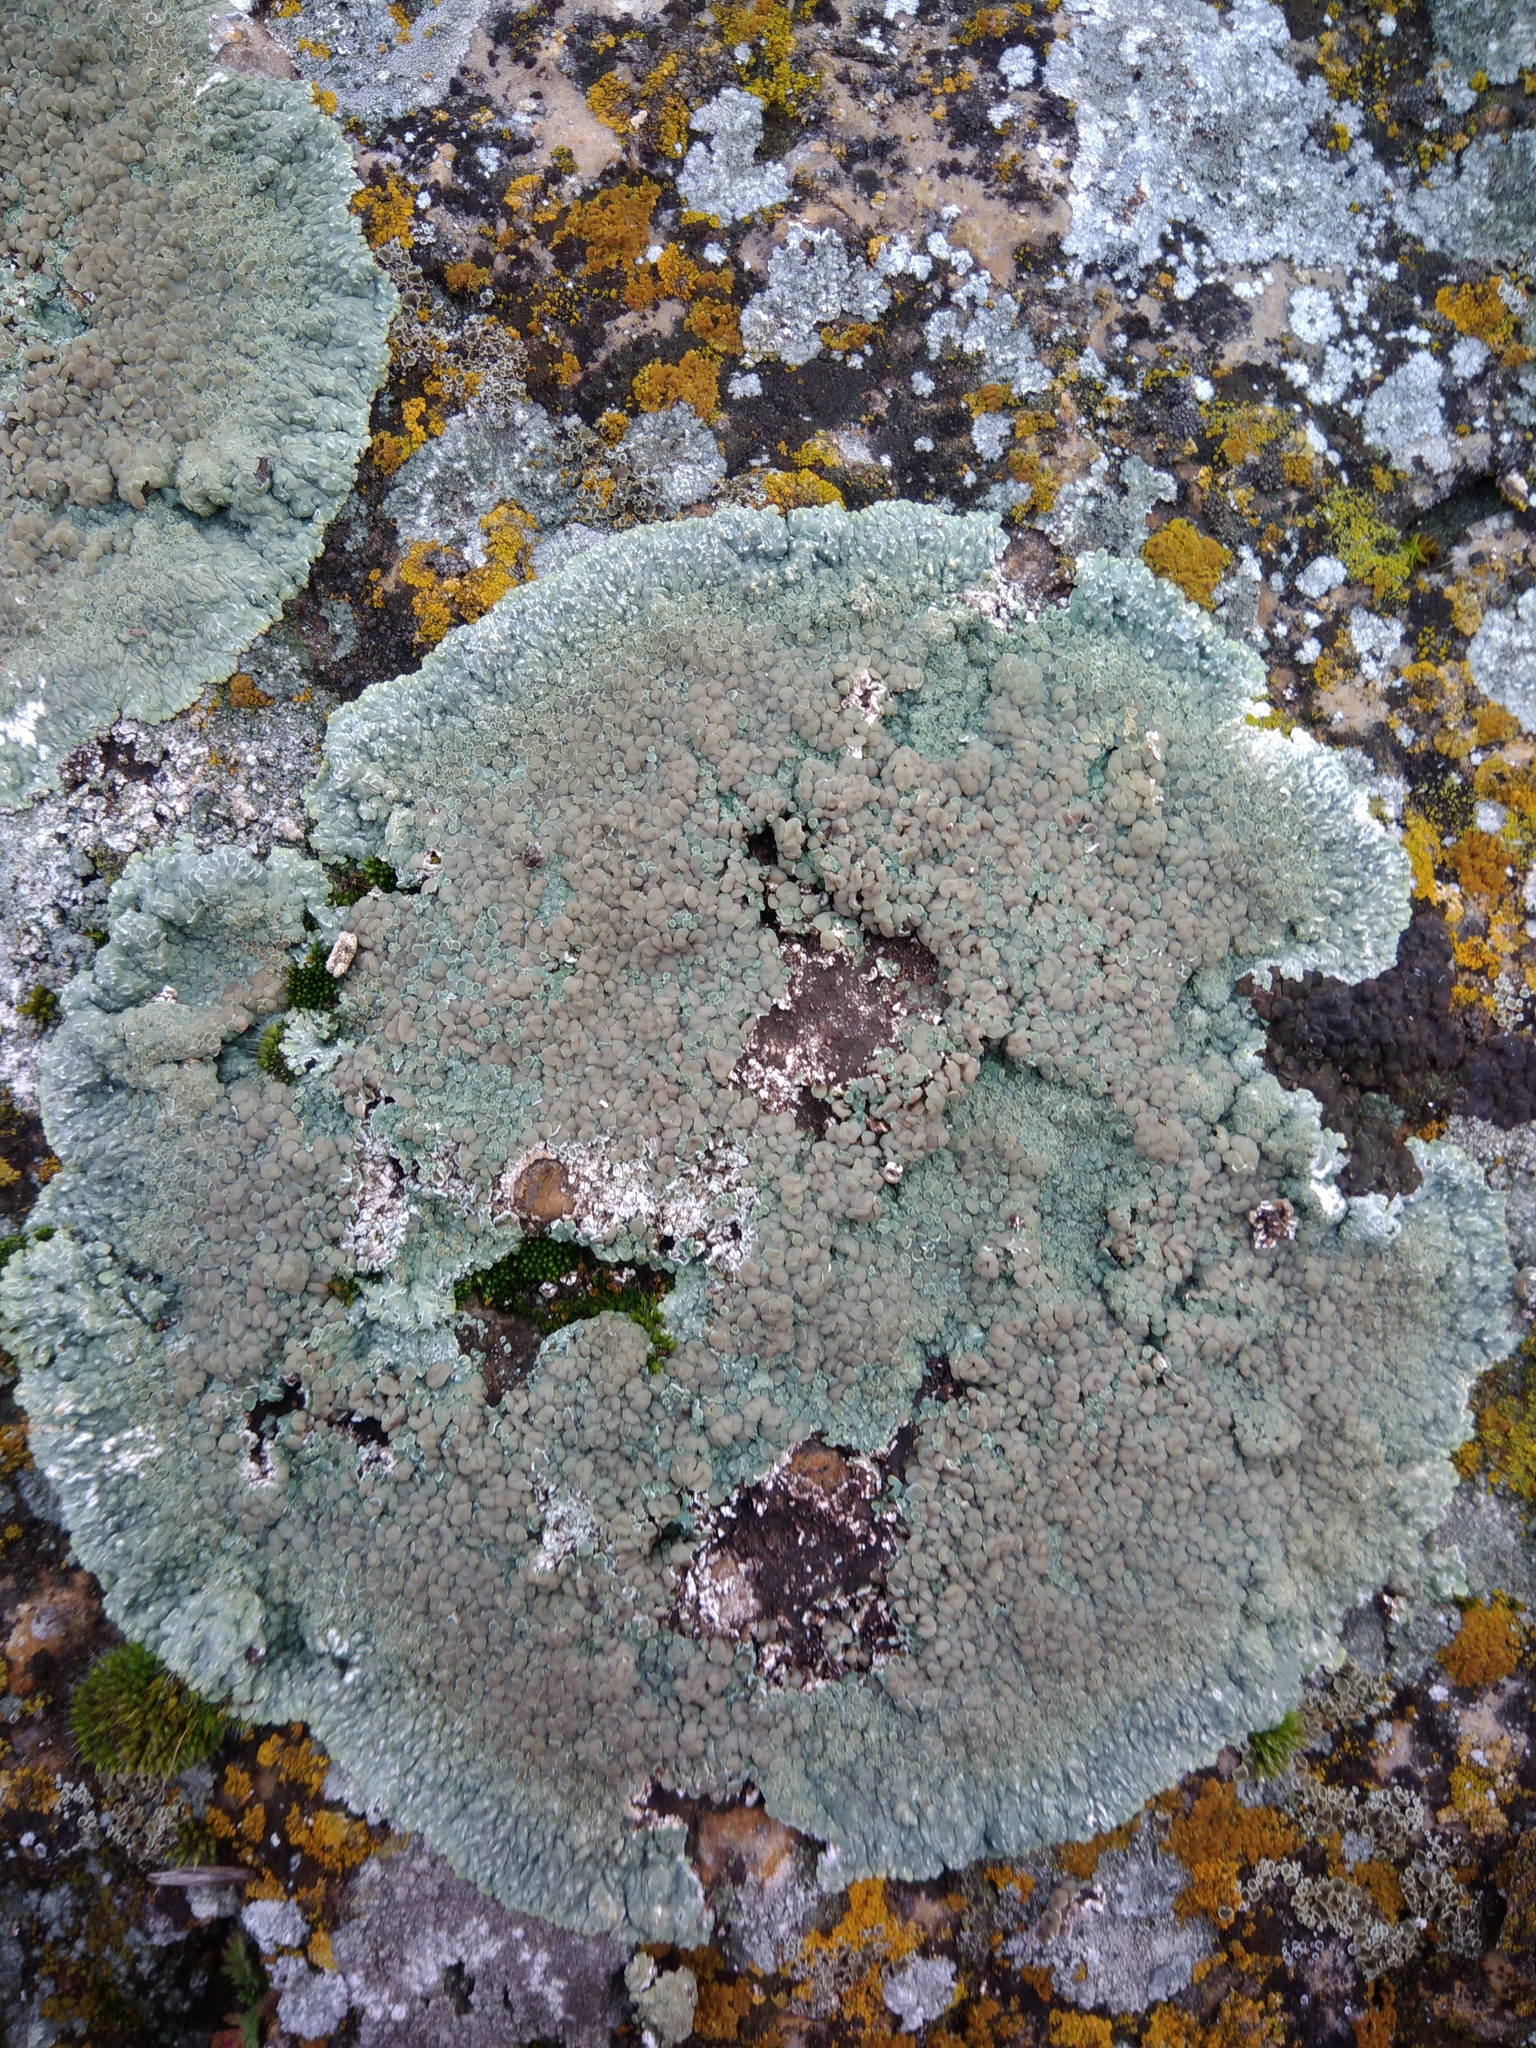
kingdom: Fungi
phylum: Ascomycota
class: Lecanoromycetes
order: Lecanorales
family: Lecanoraceae
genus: Protoparmeliopsis
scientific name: Protoparmeliopsis muralis
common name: Stonewall rim lichen
